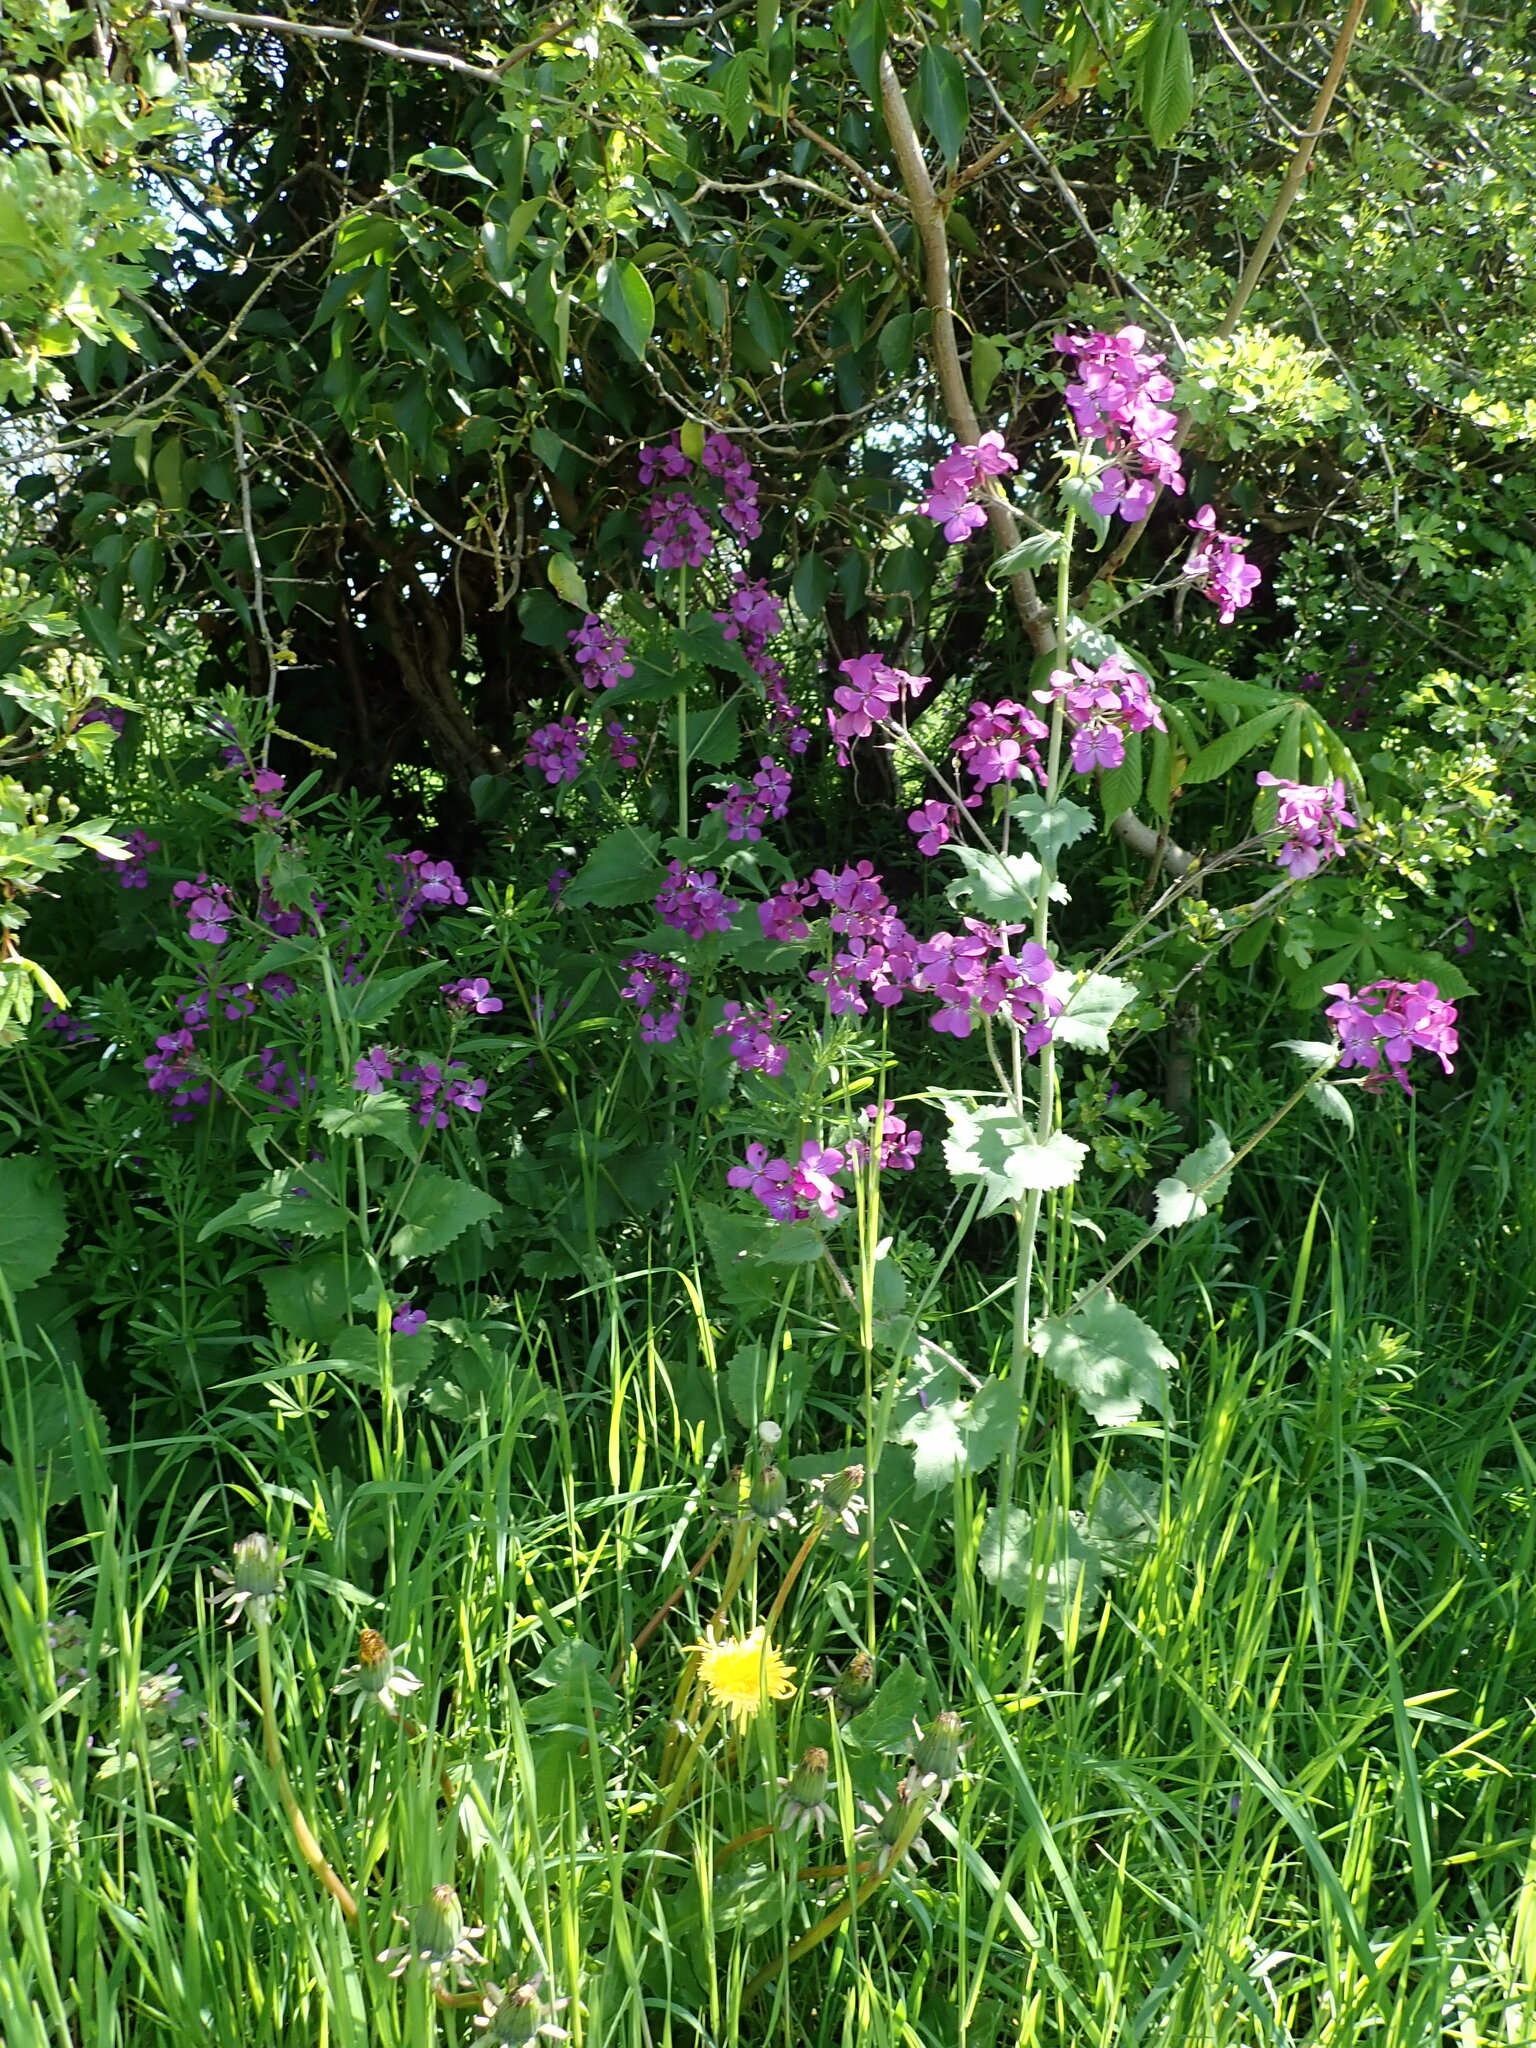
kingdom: Plantae
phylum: Tracheophyta
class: Magnoliopsida
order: Brassicales
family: Brassicaceae
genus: Lunaria
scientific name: Lunaria annua
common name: Honesty
